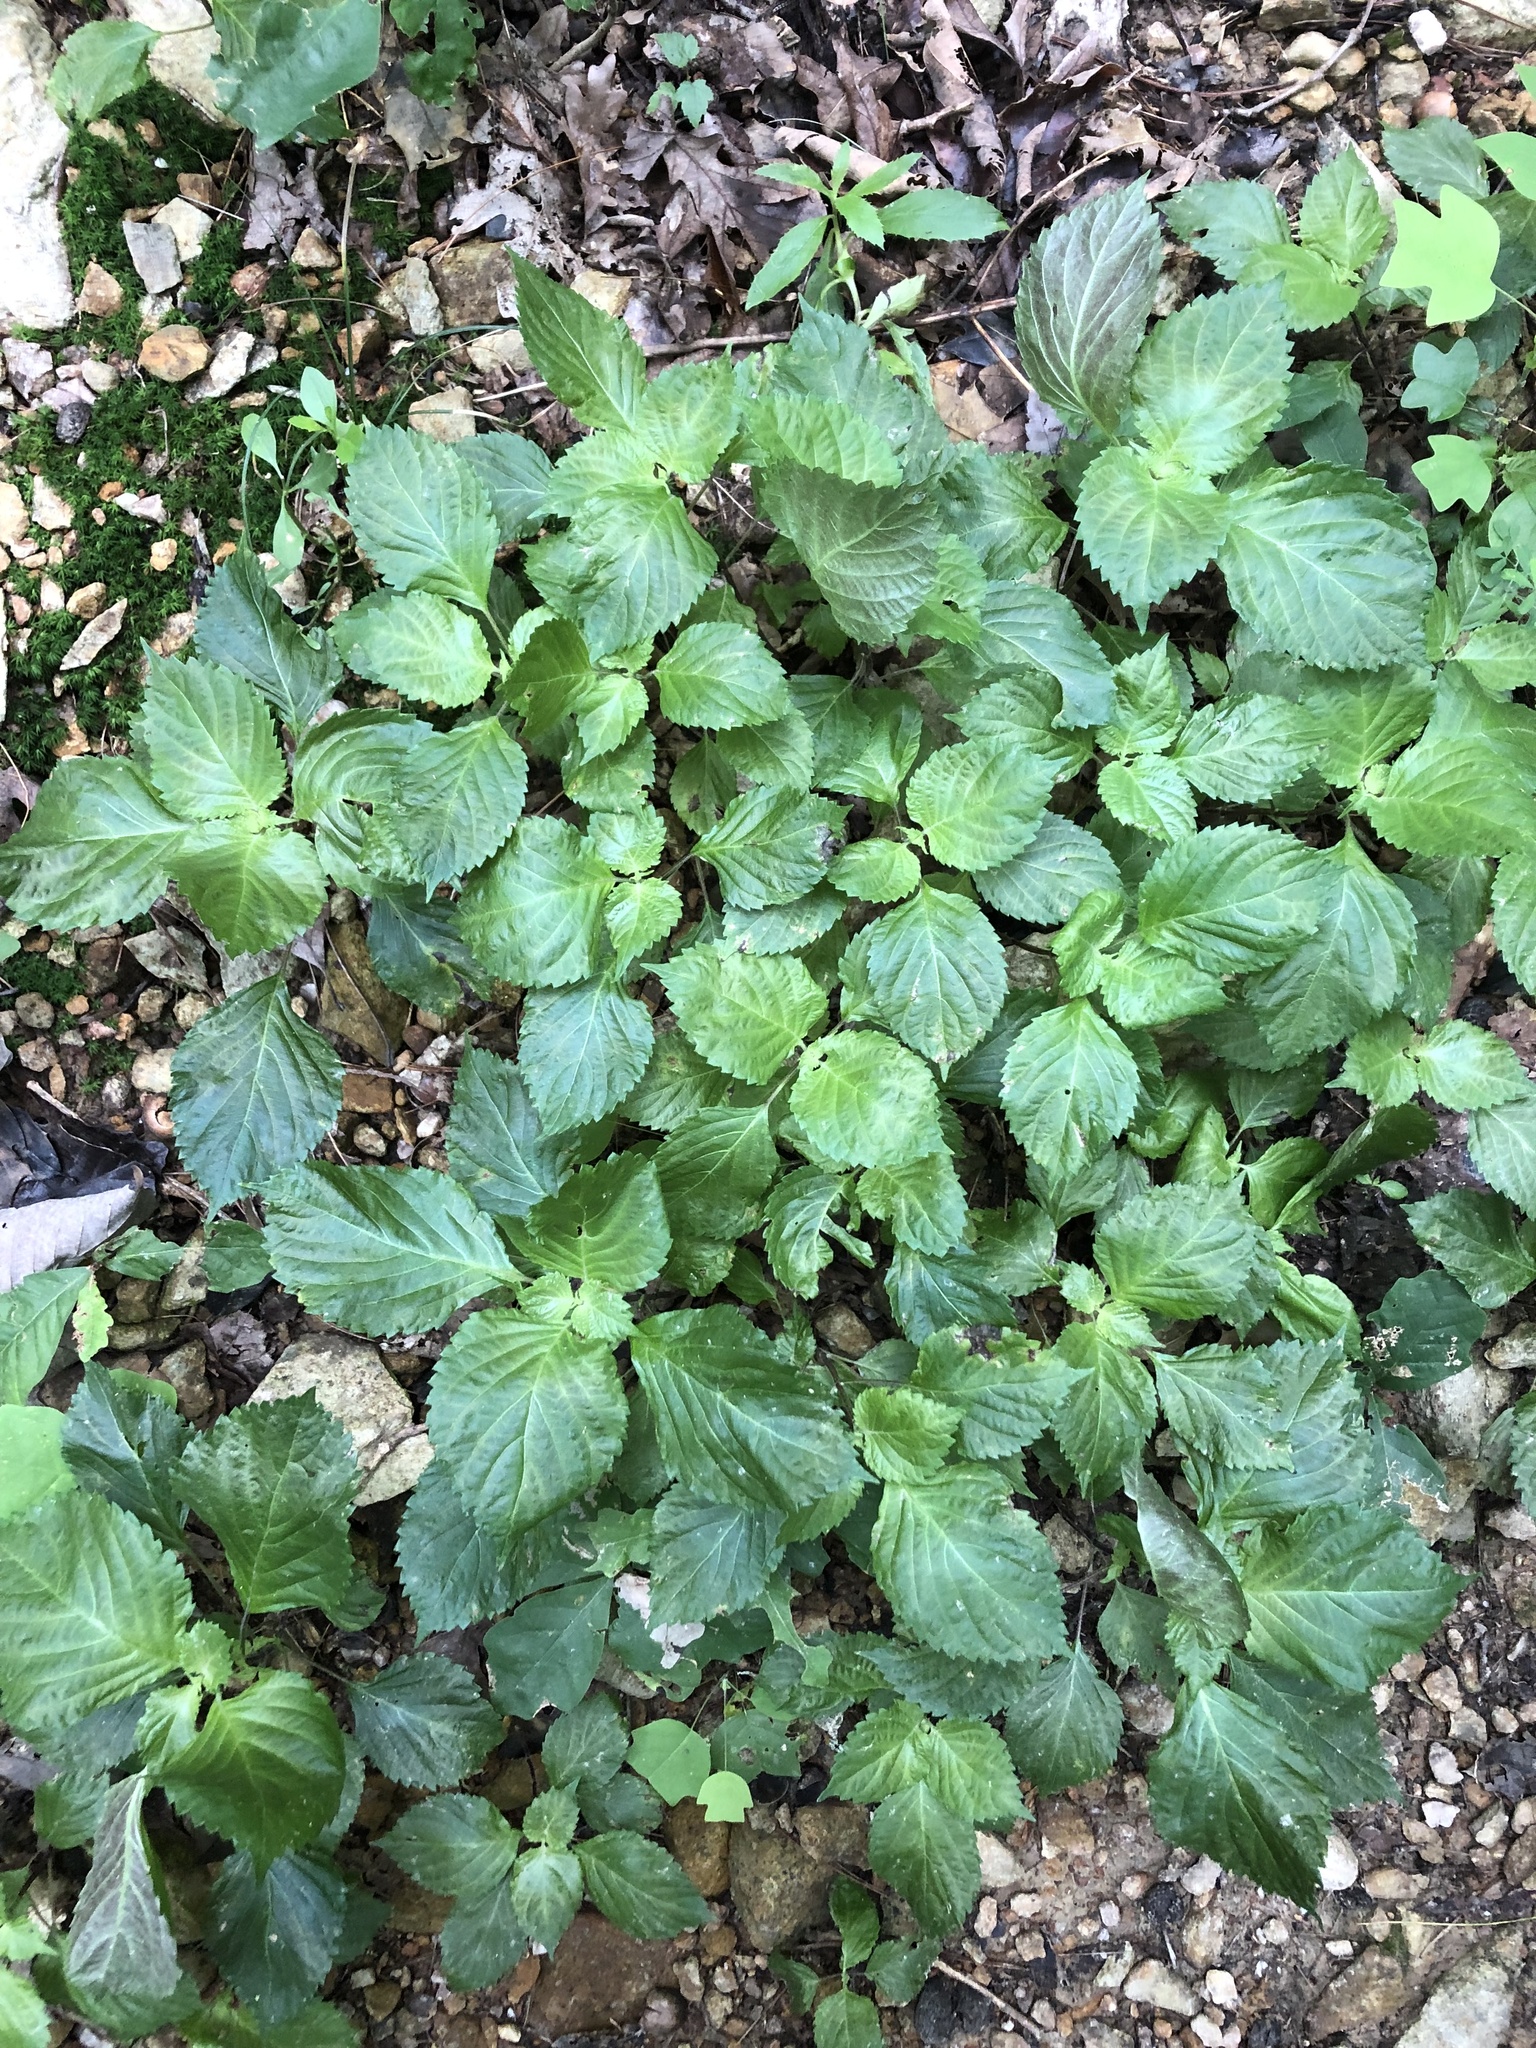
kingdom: Plantae
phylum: Tracheophyta
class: Magnoliopsida
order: Lamiales
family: Lamiaceae
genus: Perilla
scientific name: Perilla frutescens
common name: Perilla
